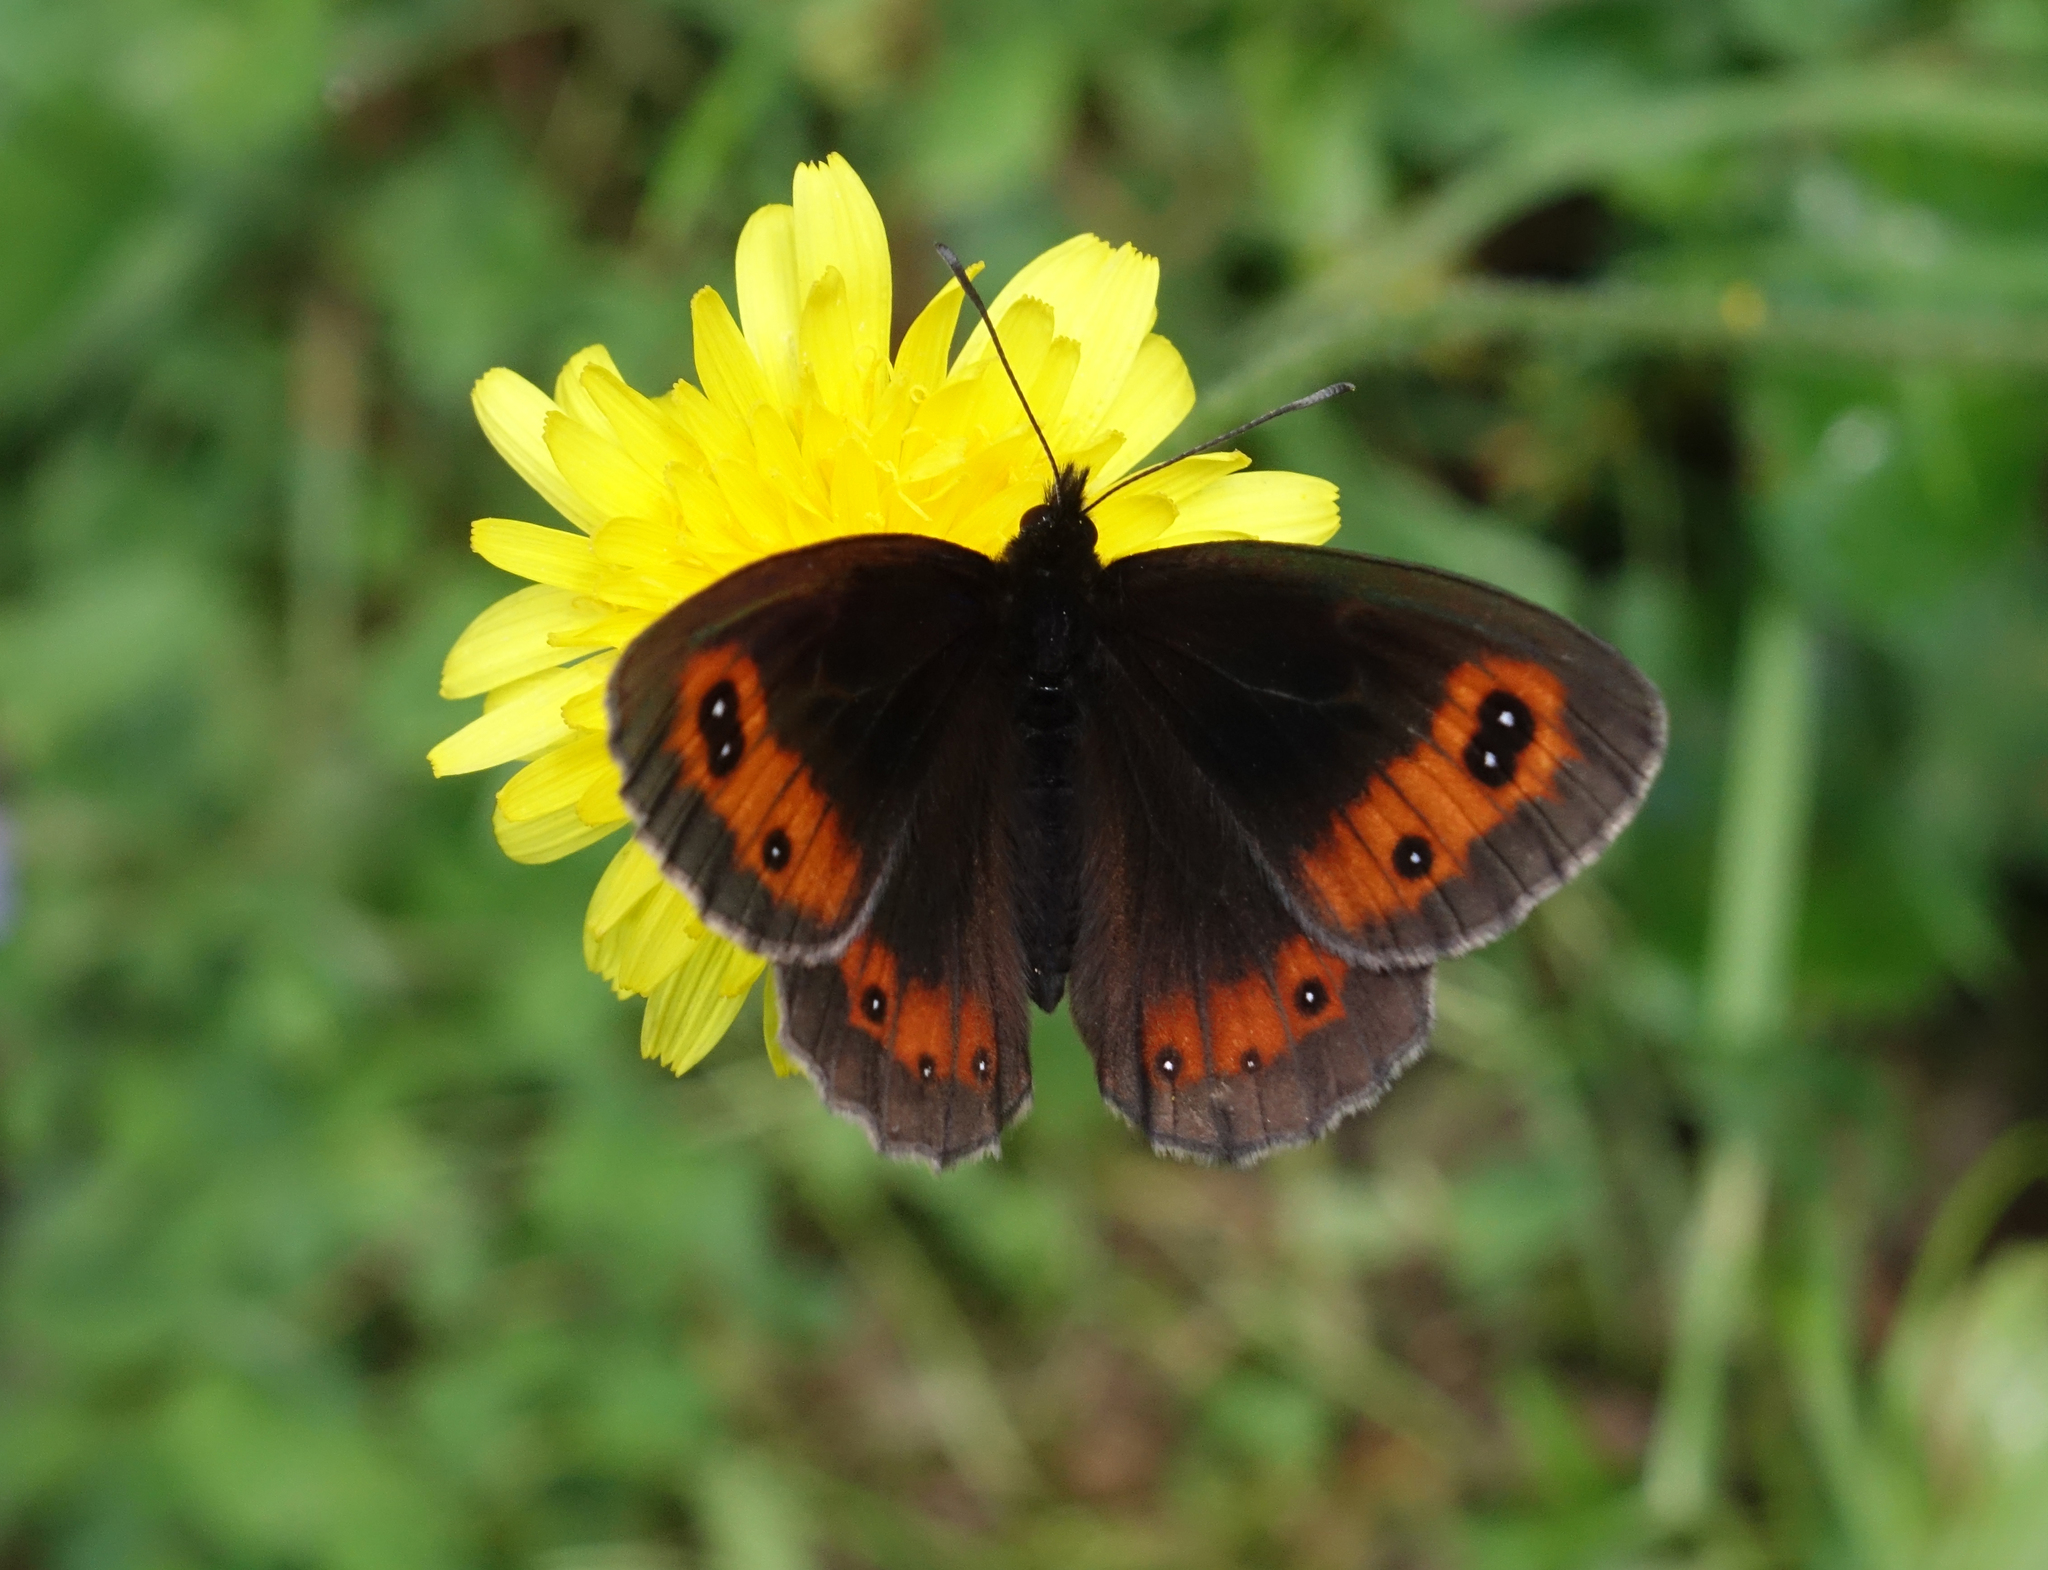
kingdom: Animalia
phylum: Arthropoda
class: Insecta
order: Lepidoptera
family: Nymphalidae
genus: Erebia
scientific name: Erebia aethiops
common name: Scotch argus
